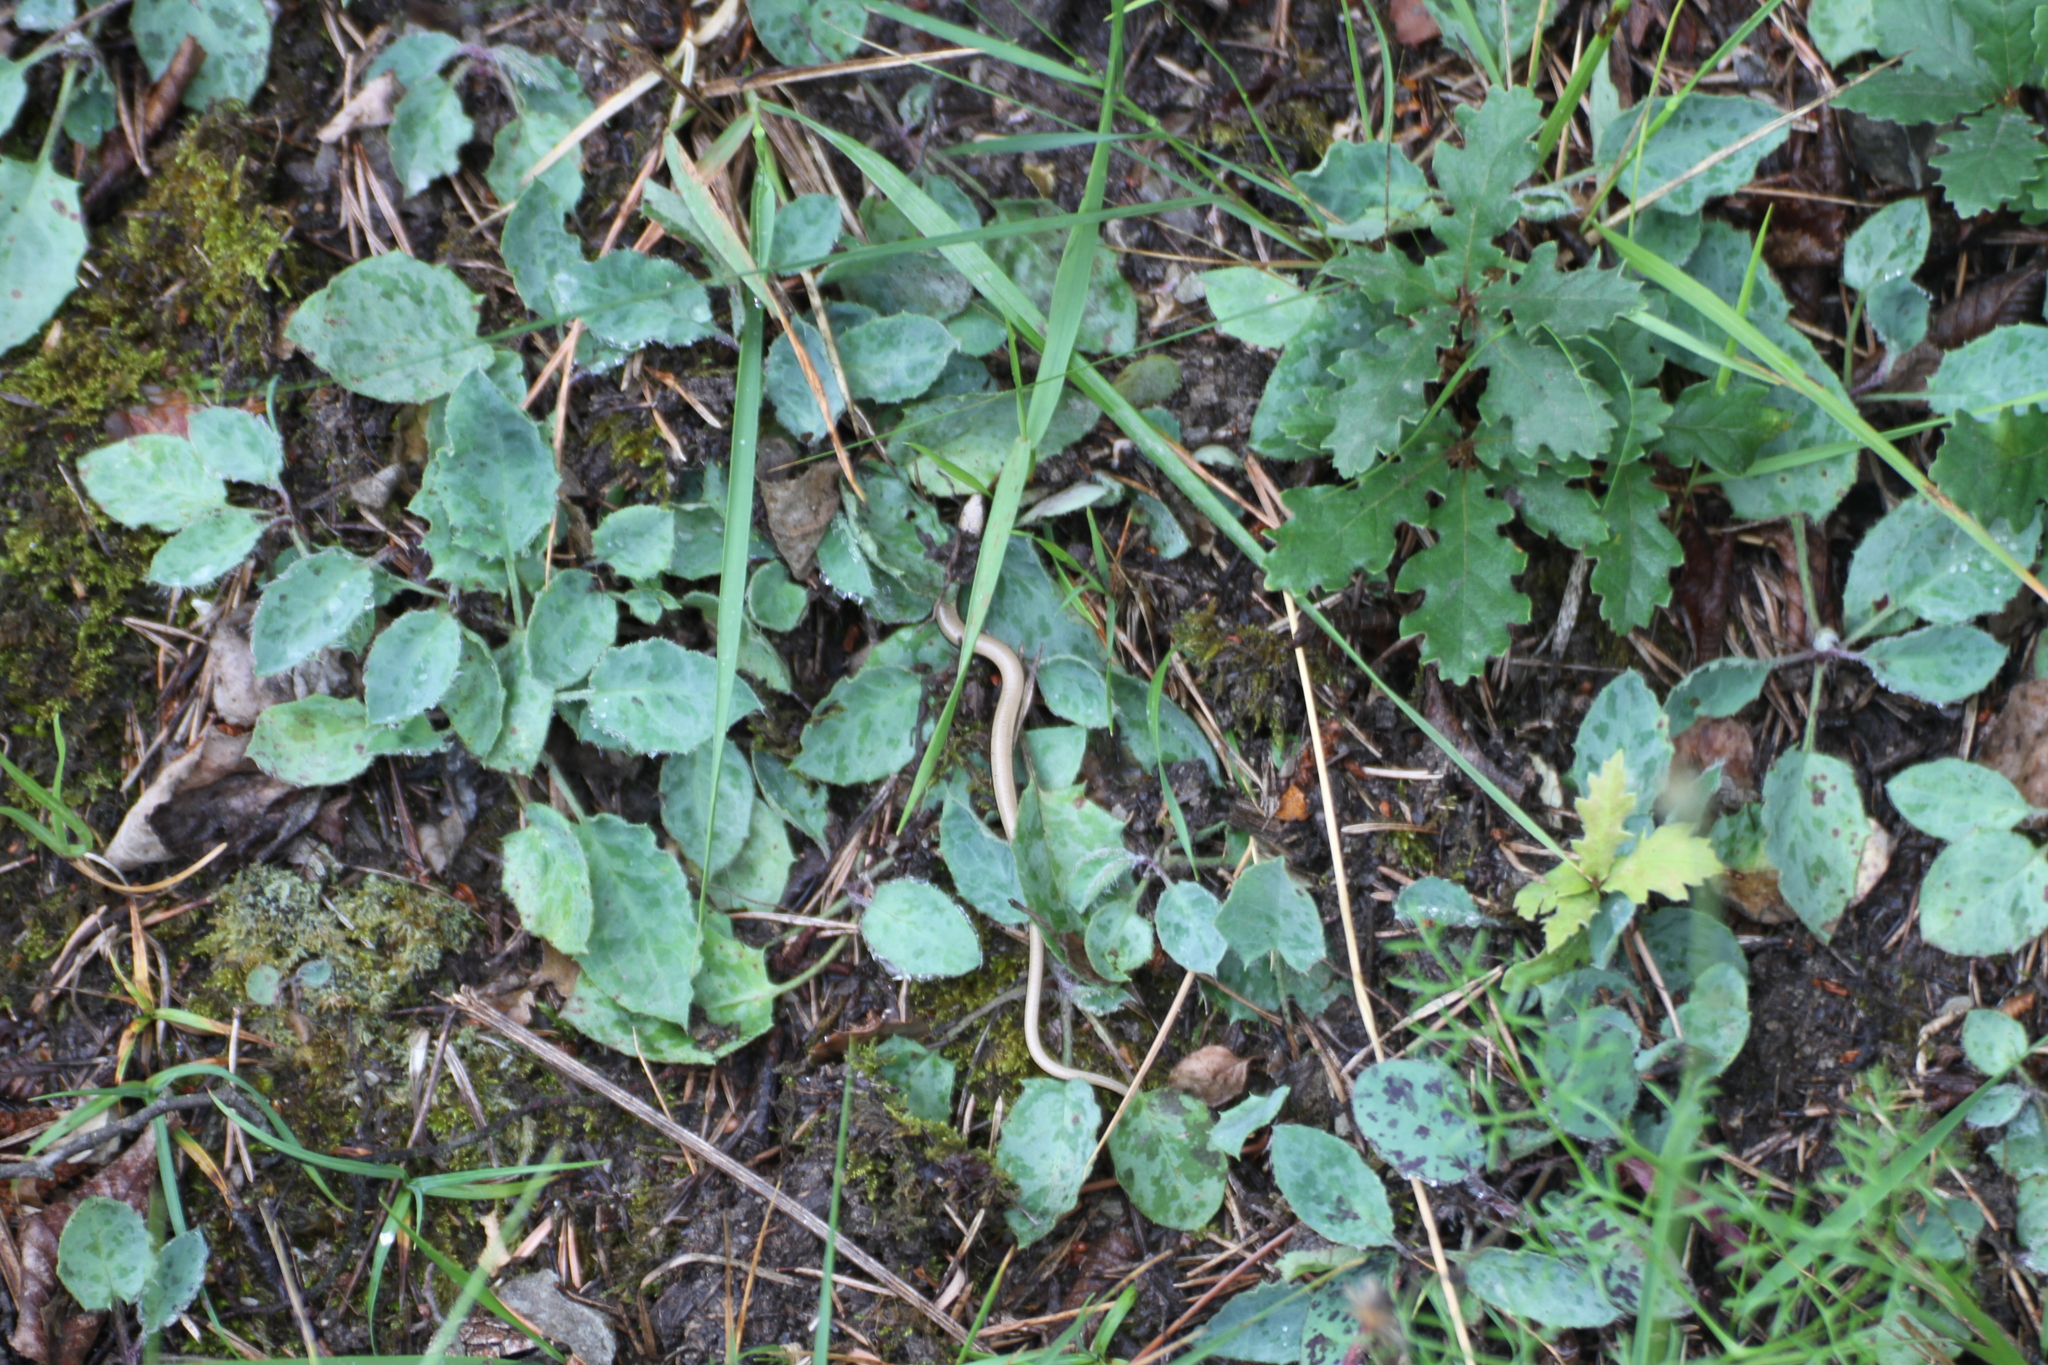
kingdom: Animalia
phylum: Chordata
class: Squamata
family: Anguidae
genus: Anguis
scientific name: Anguis veronensis
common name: Italian slow worm
